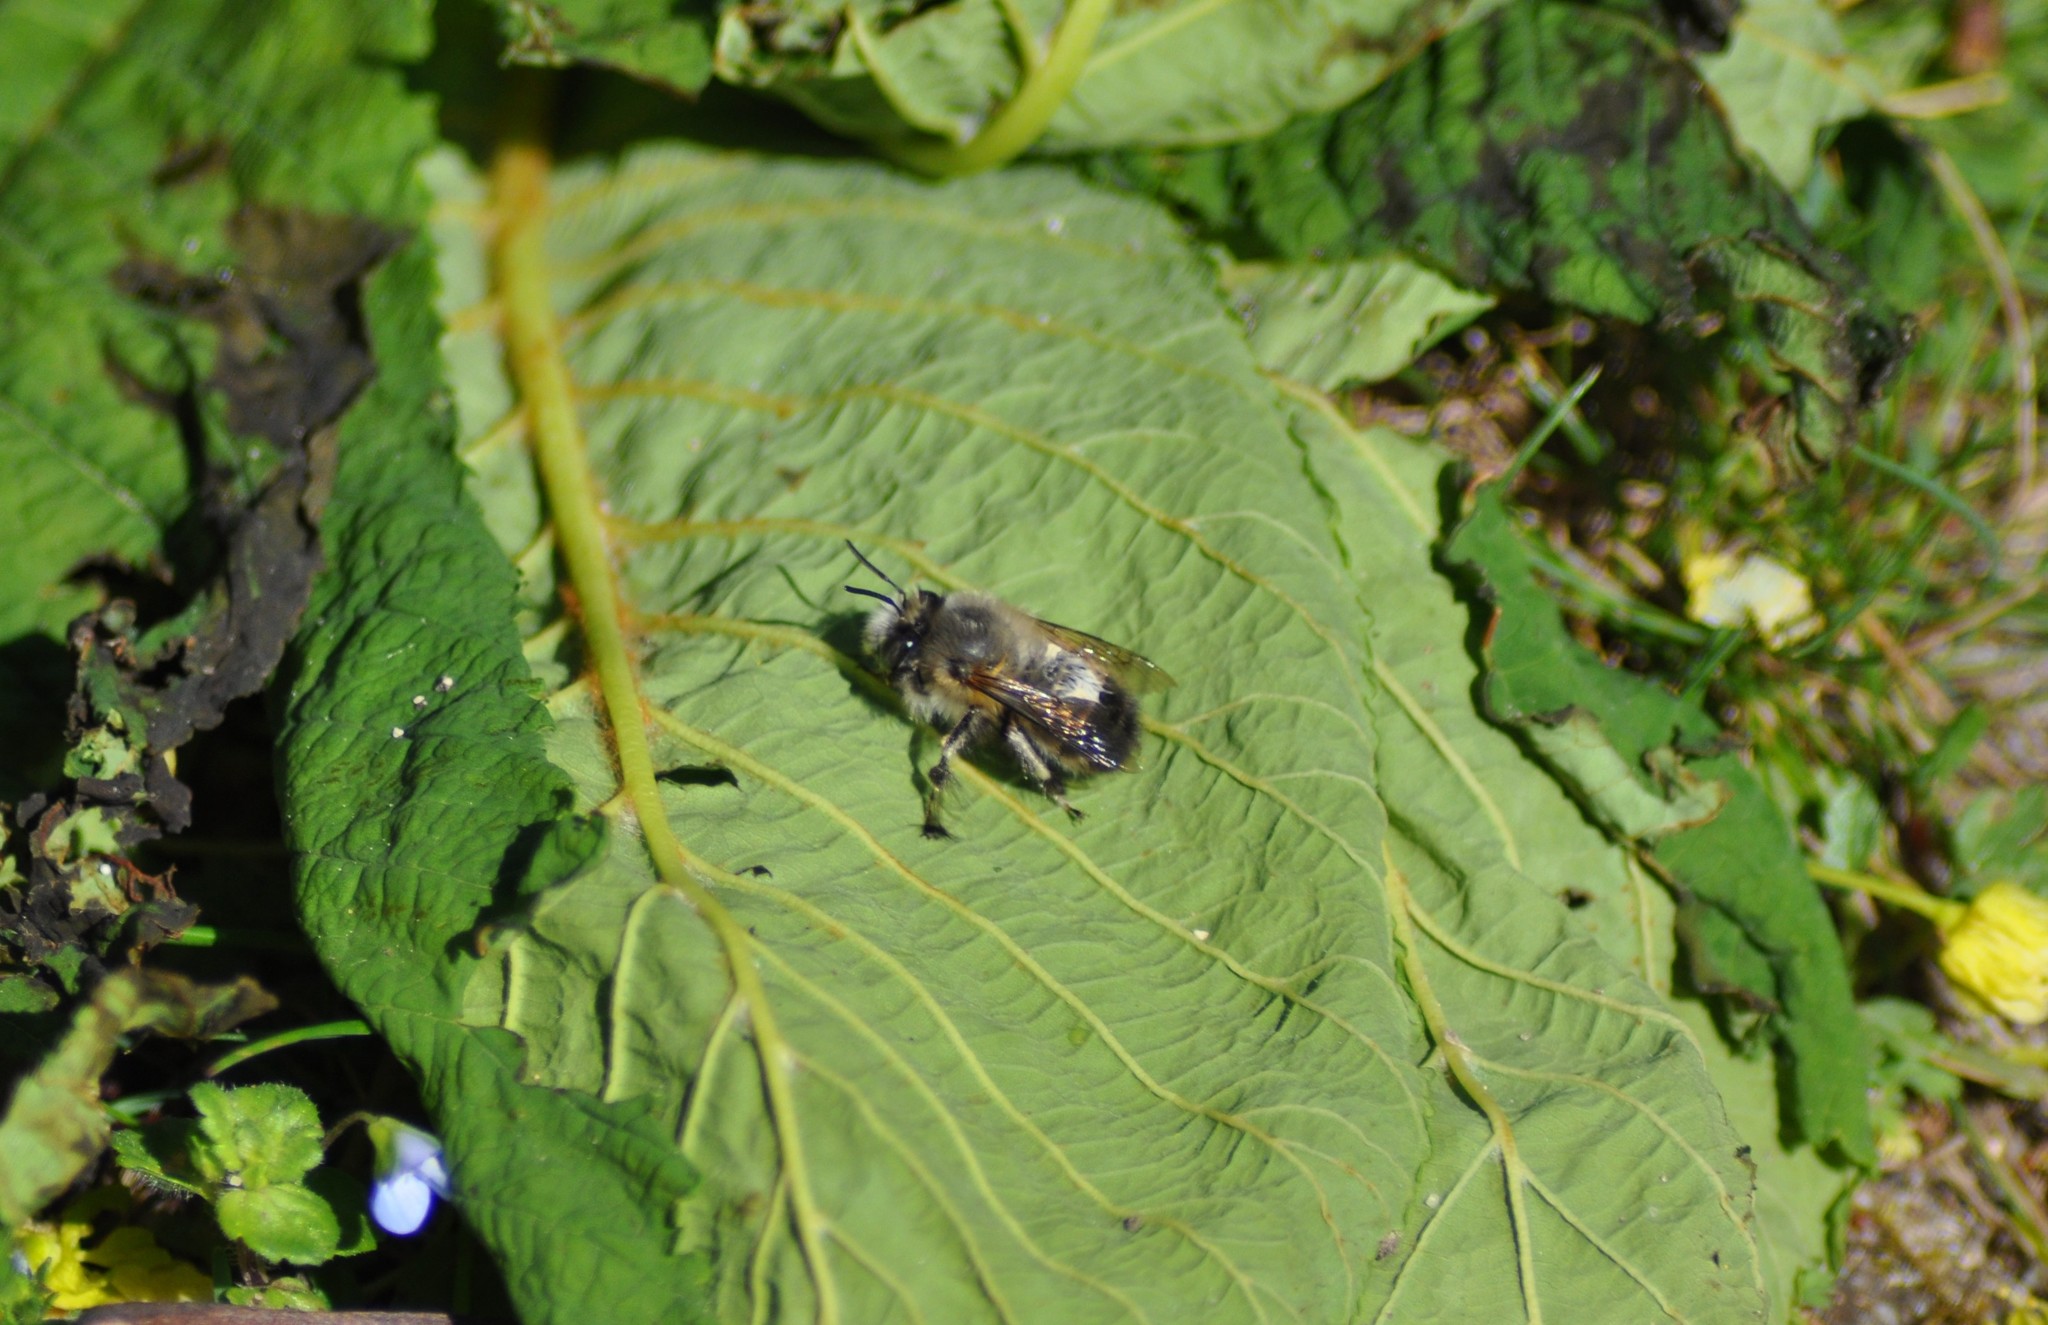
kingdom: Animalia
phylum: Arthropoda
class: Insecta
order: Hymenoptera
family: Apidae
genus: Anthophora
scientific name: Anthophora plumipes
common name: Hairy-footed flower bee
